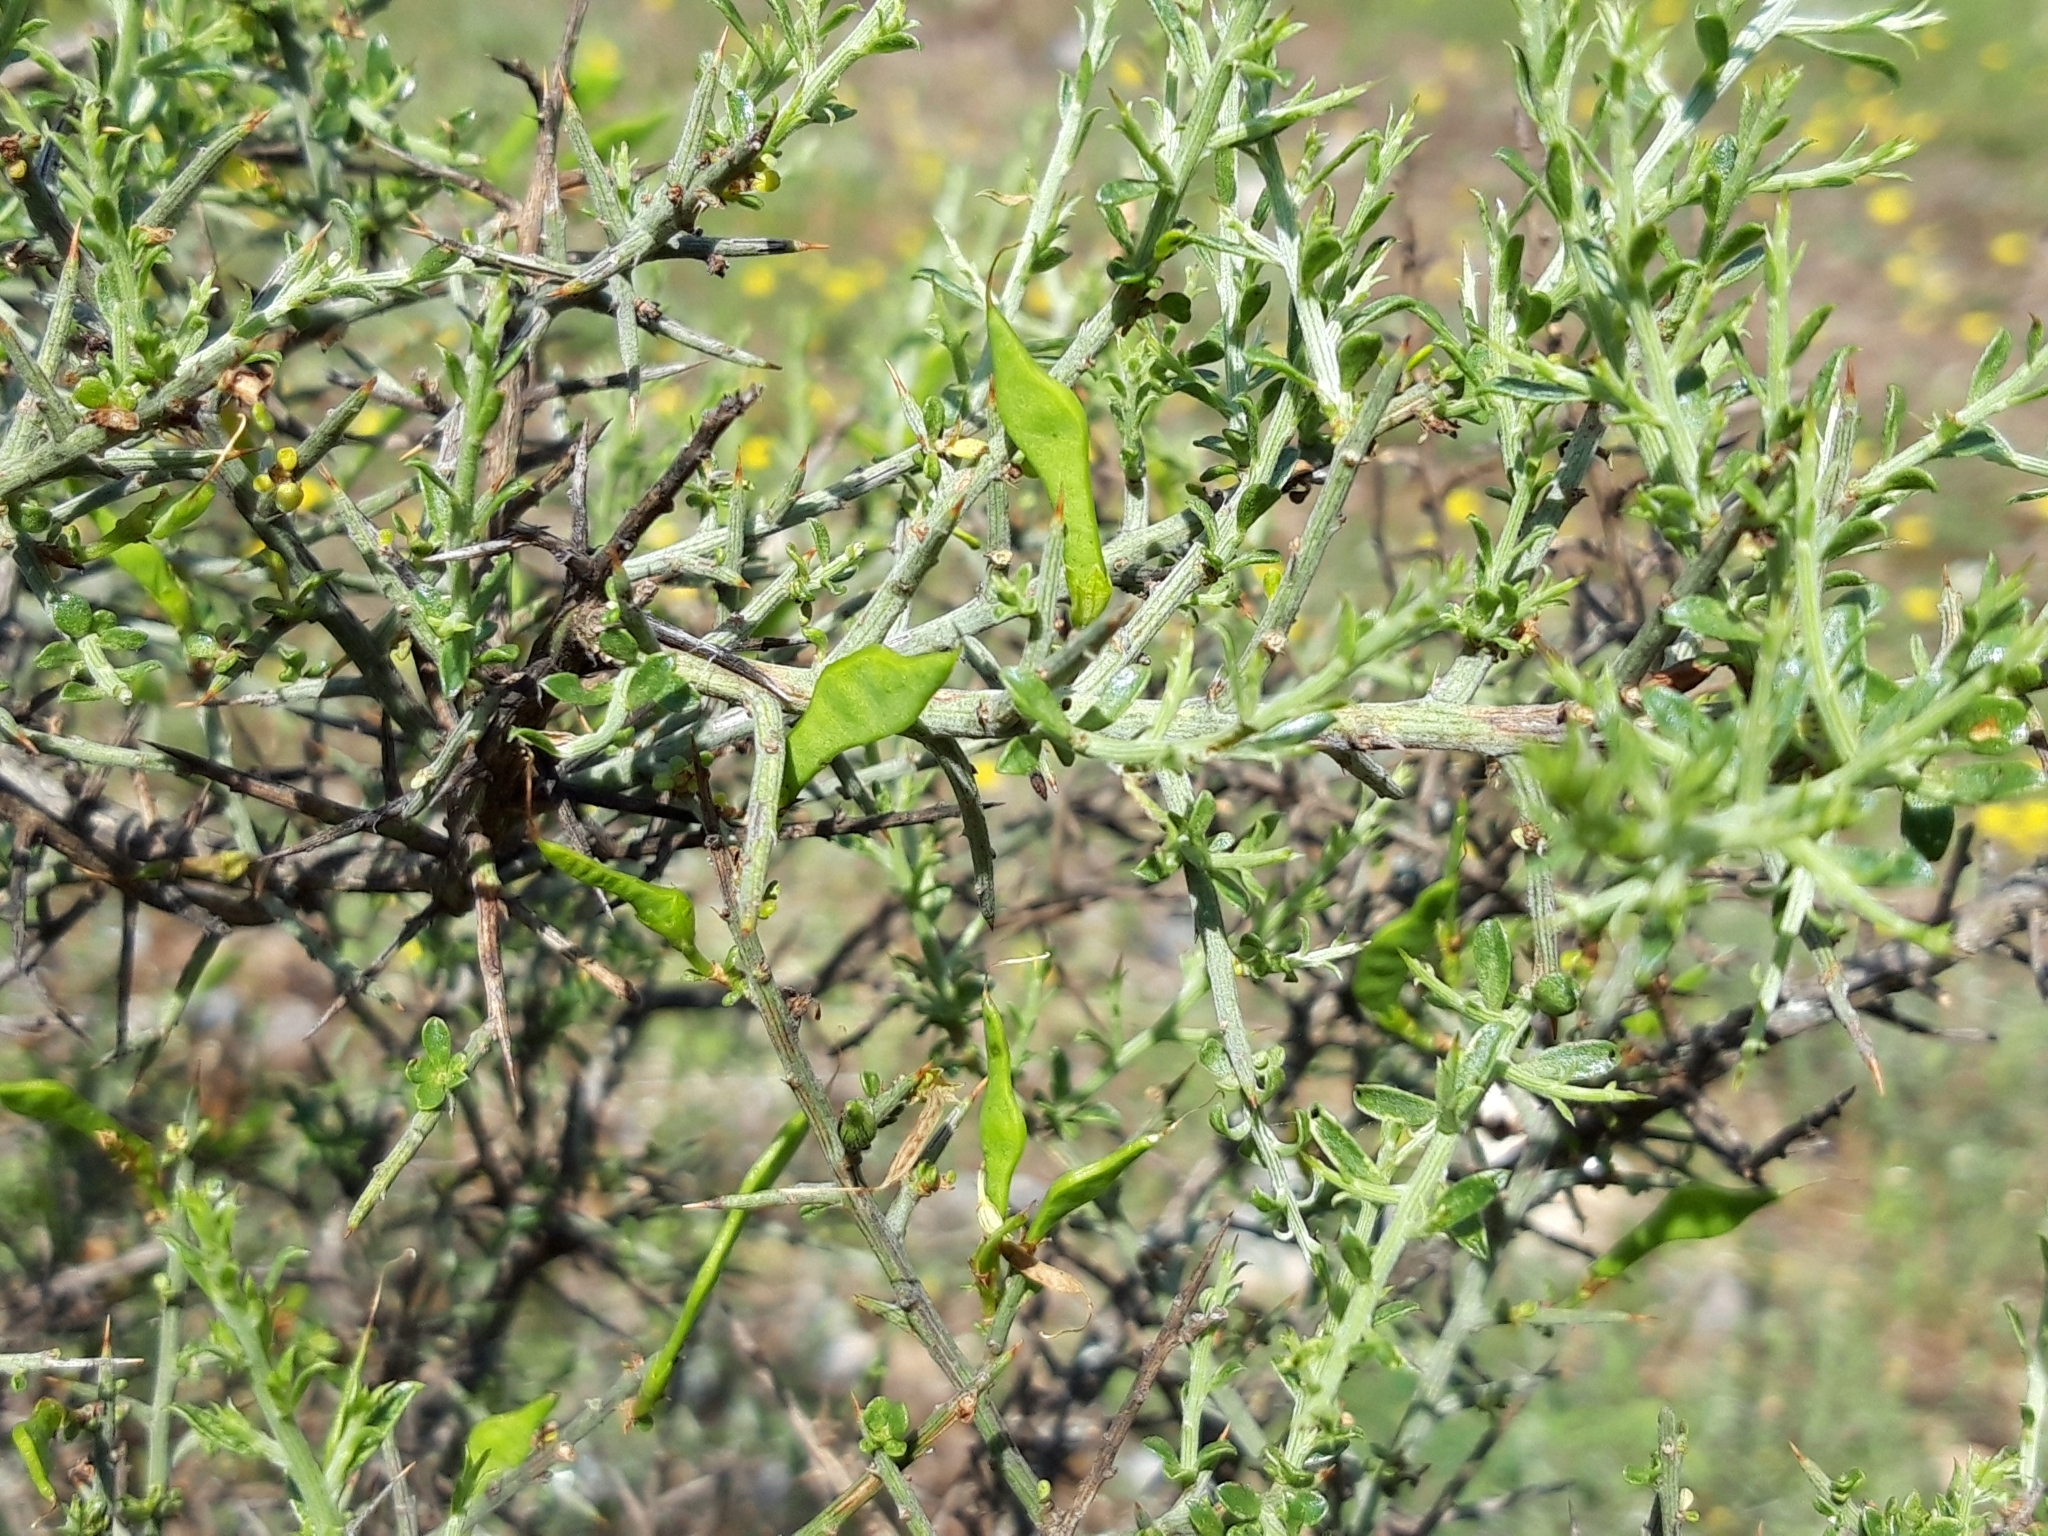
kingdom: Plantae
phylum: Tracheophyta
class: Magnoliopsida
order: Fabales
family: Fabaceae
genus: Genista
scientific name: Genista scorpius
